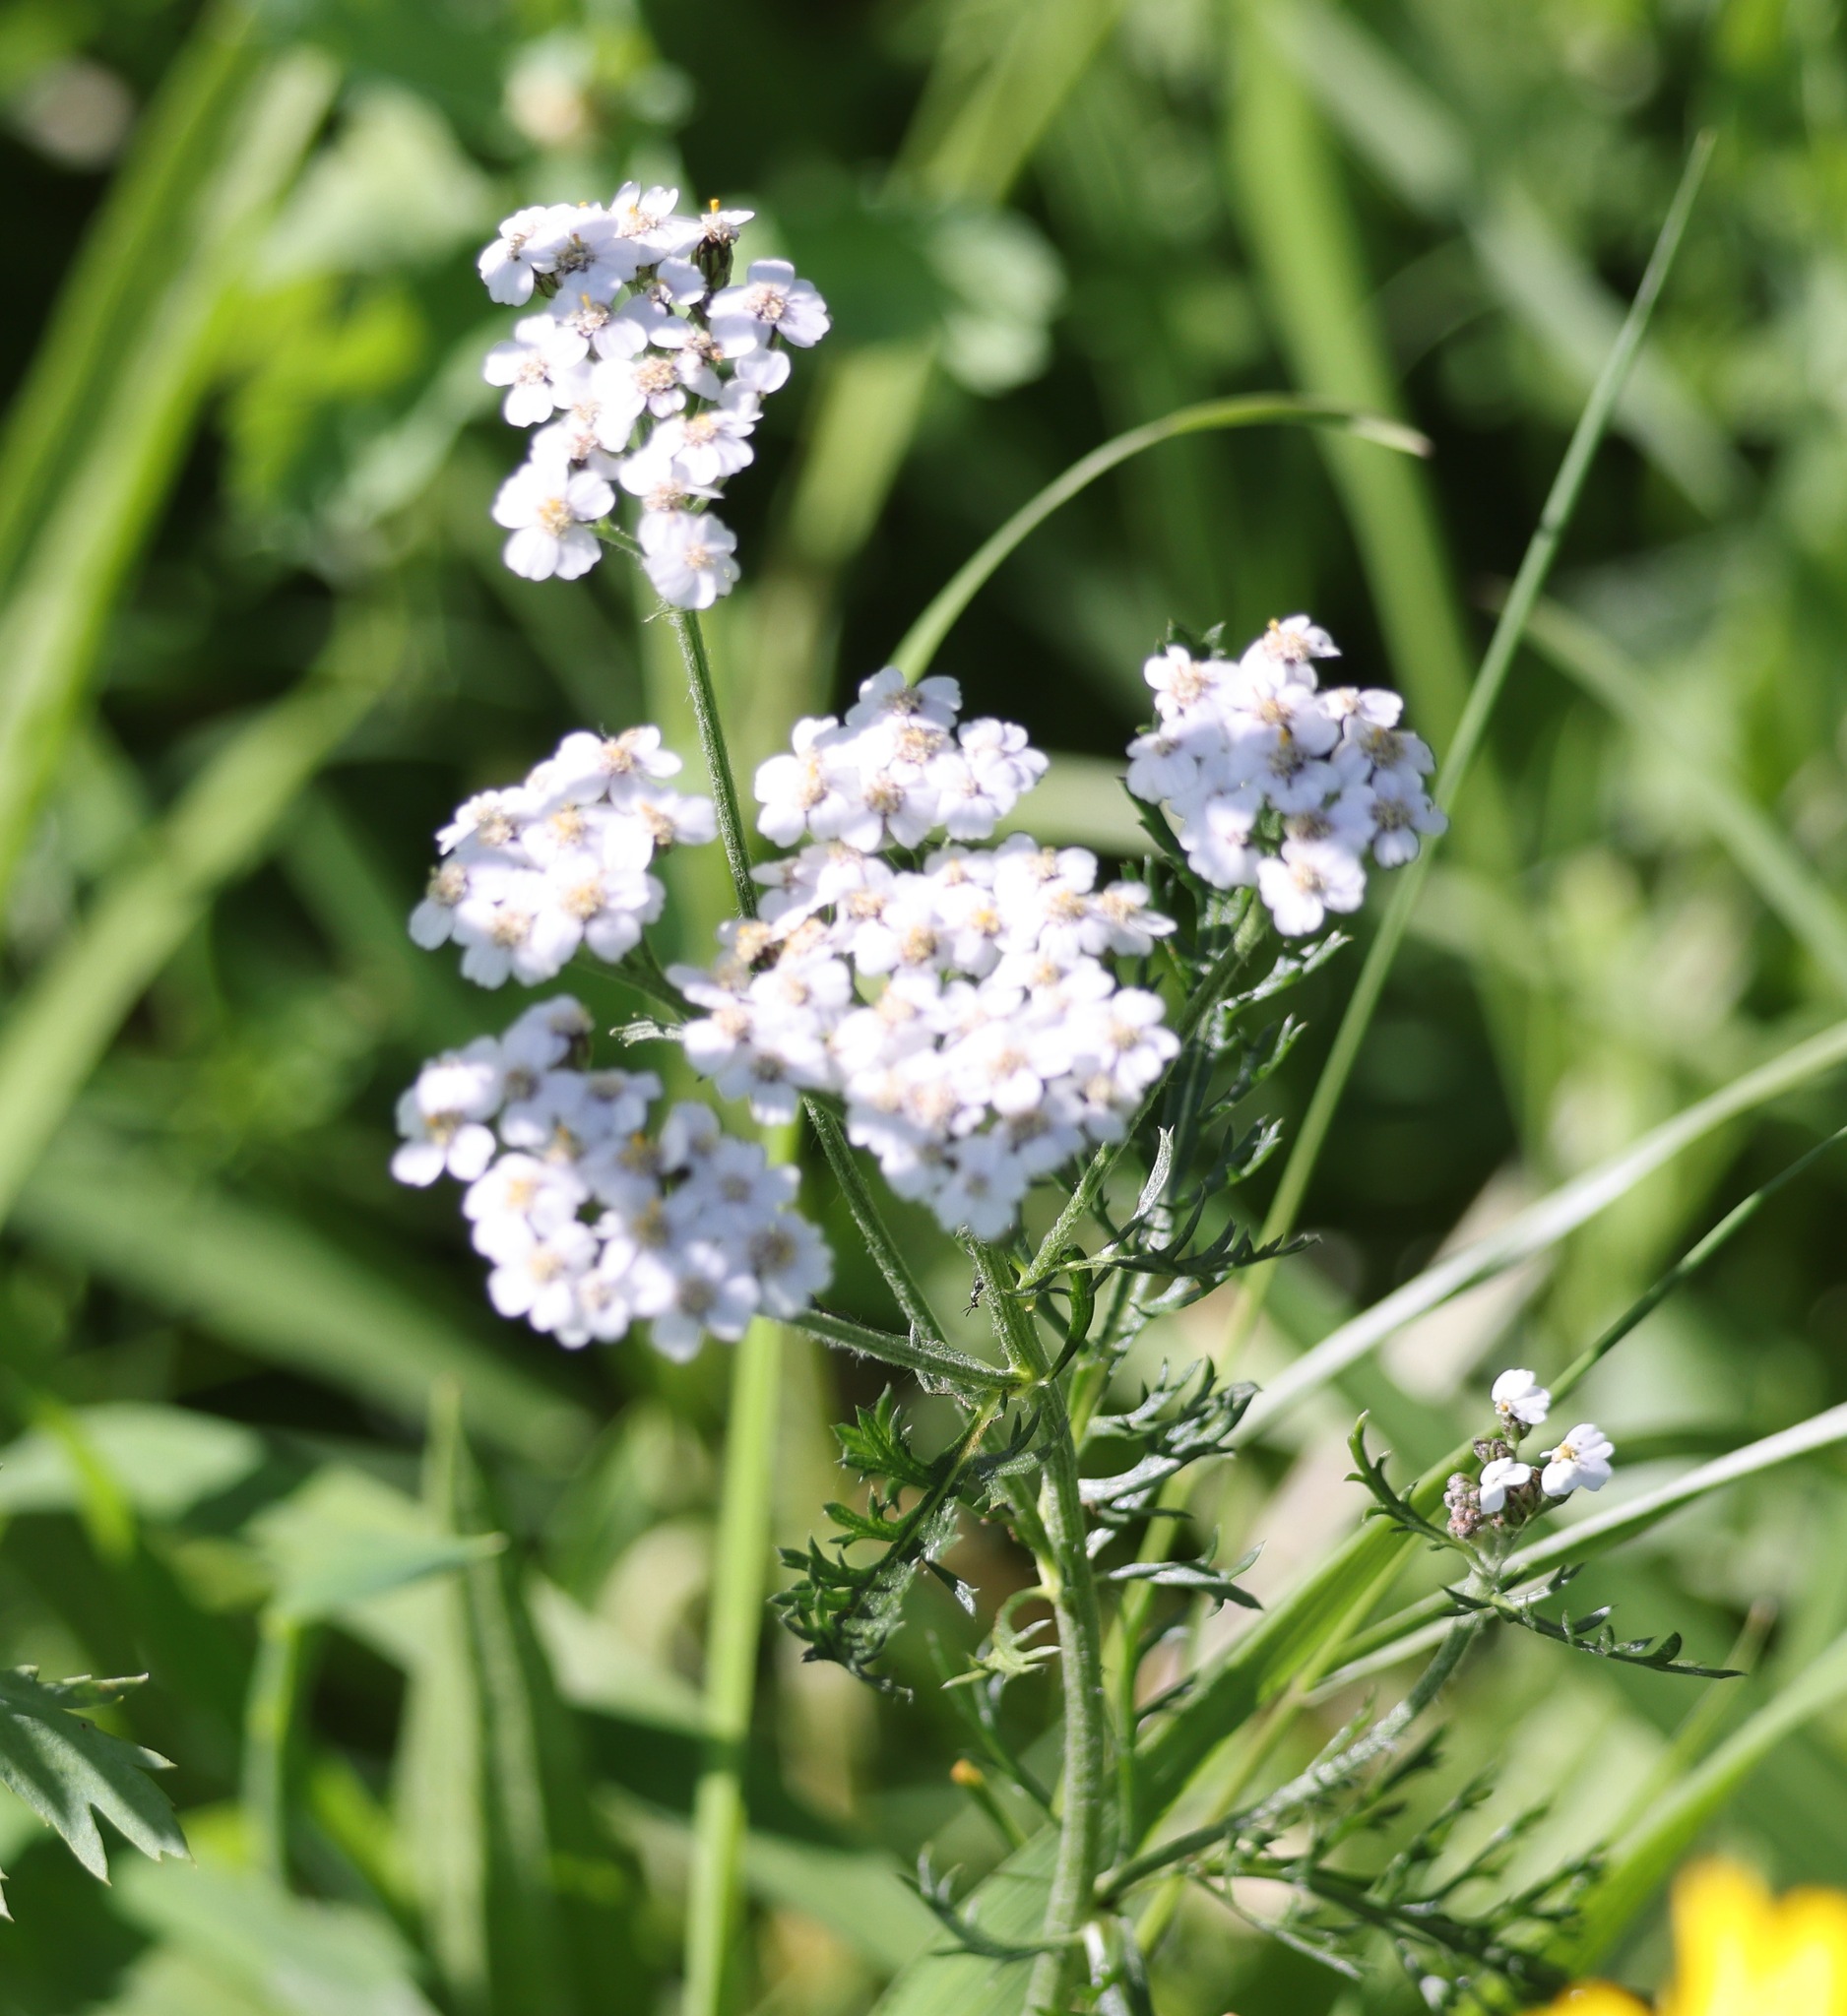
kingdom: Plantae
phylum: Tracheophyta
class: Magnoliopsida
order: Asterales
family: Asteraceae
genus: Achillea
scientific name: Achillea millefolium
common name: Yarrow
